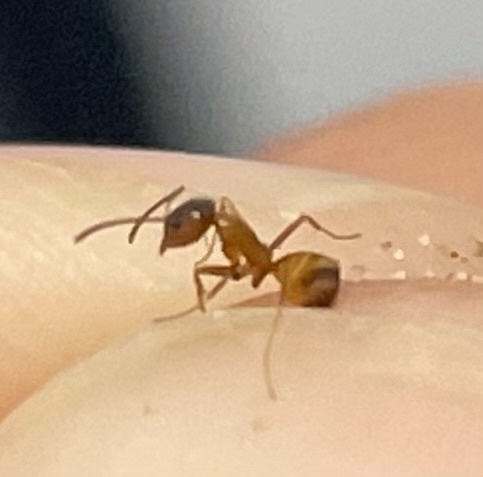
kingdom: Animalia
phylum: Arthropoda
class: Insecta
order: Hymenoptera
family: Formicidae
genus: Dorymyrmex
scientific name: Dorymyrmex flavus
